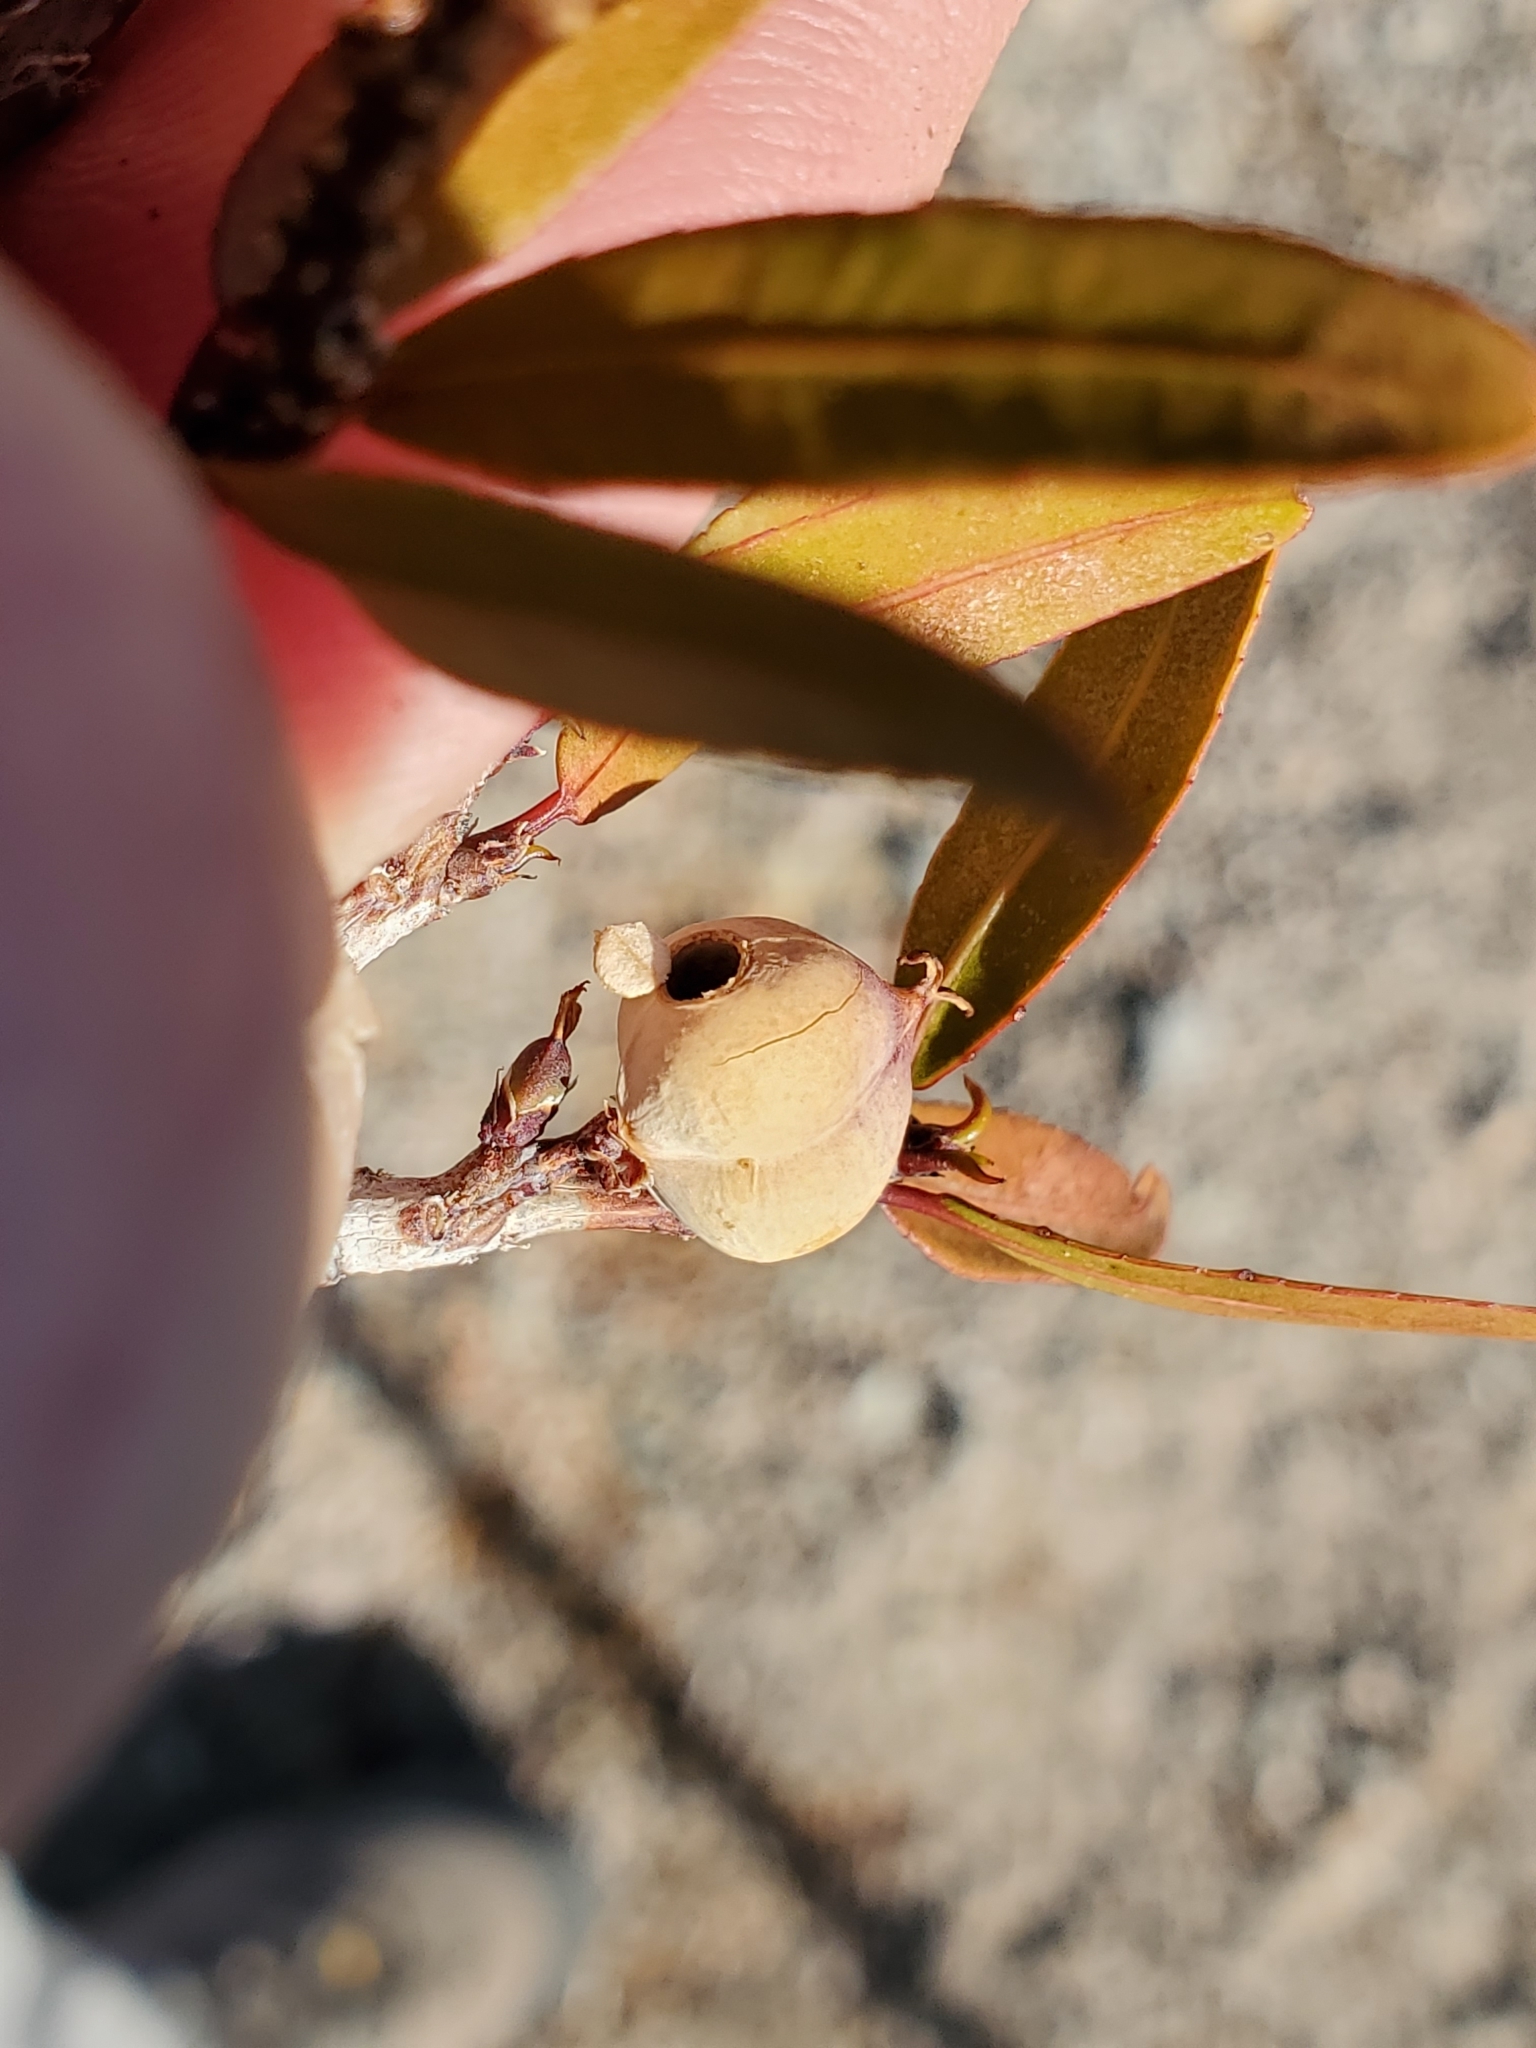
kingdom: Plantae
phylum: Tracheophyta
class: Magnoliopsida
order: Malpighiales
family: Euphorbiaceae
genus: Pleradenophora
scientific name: Pleradenophora bilocularis
